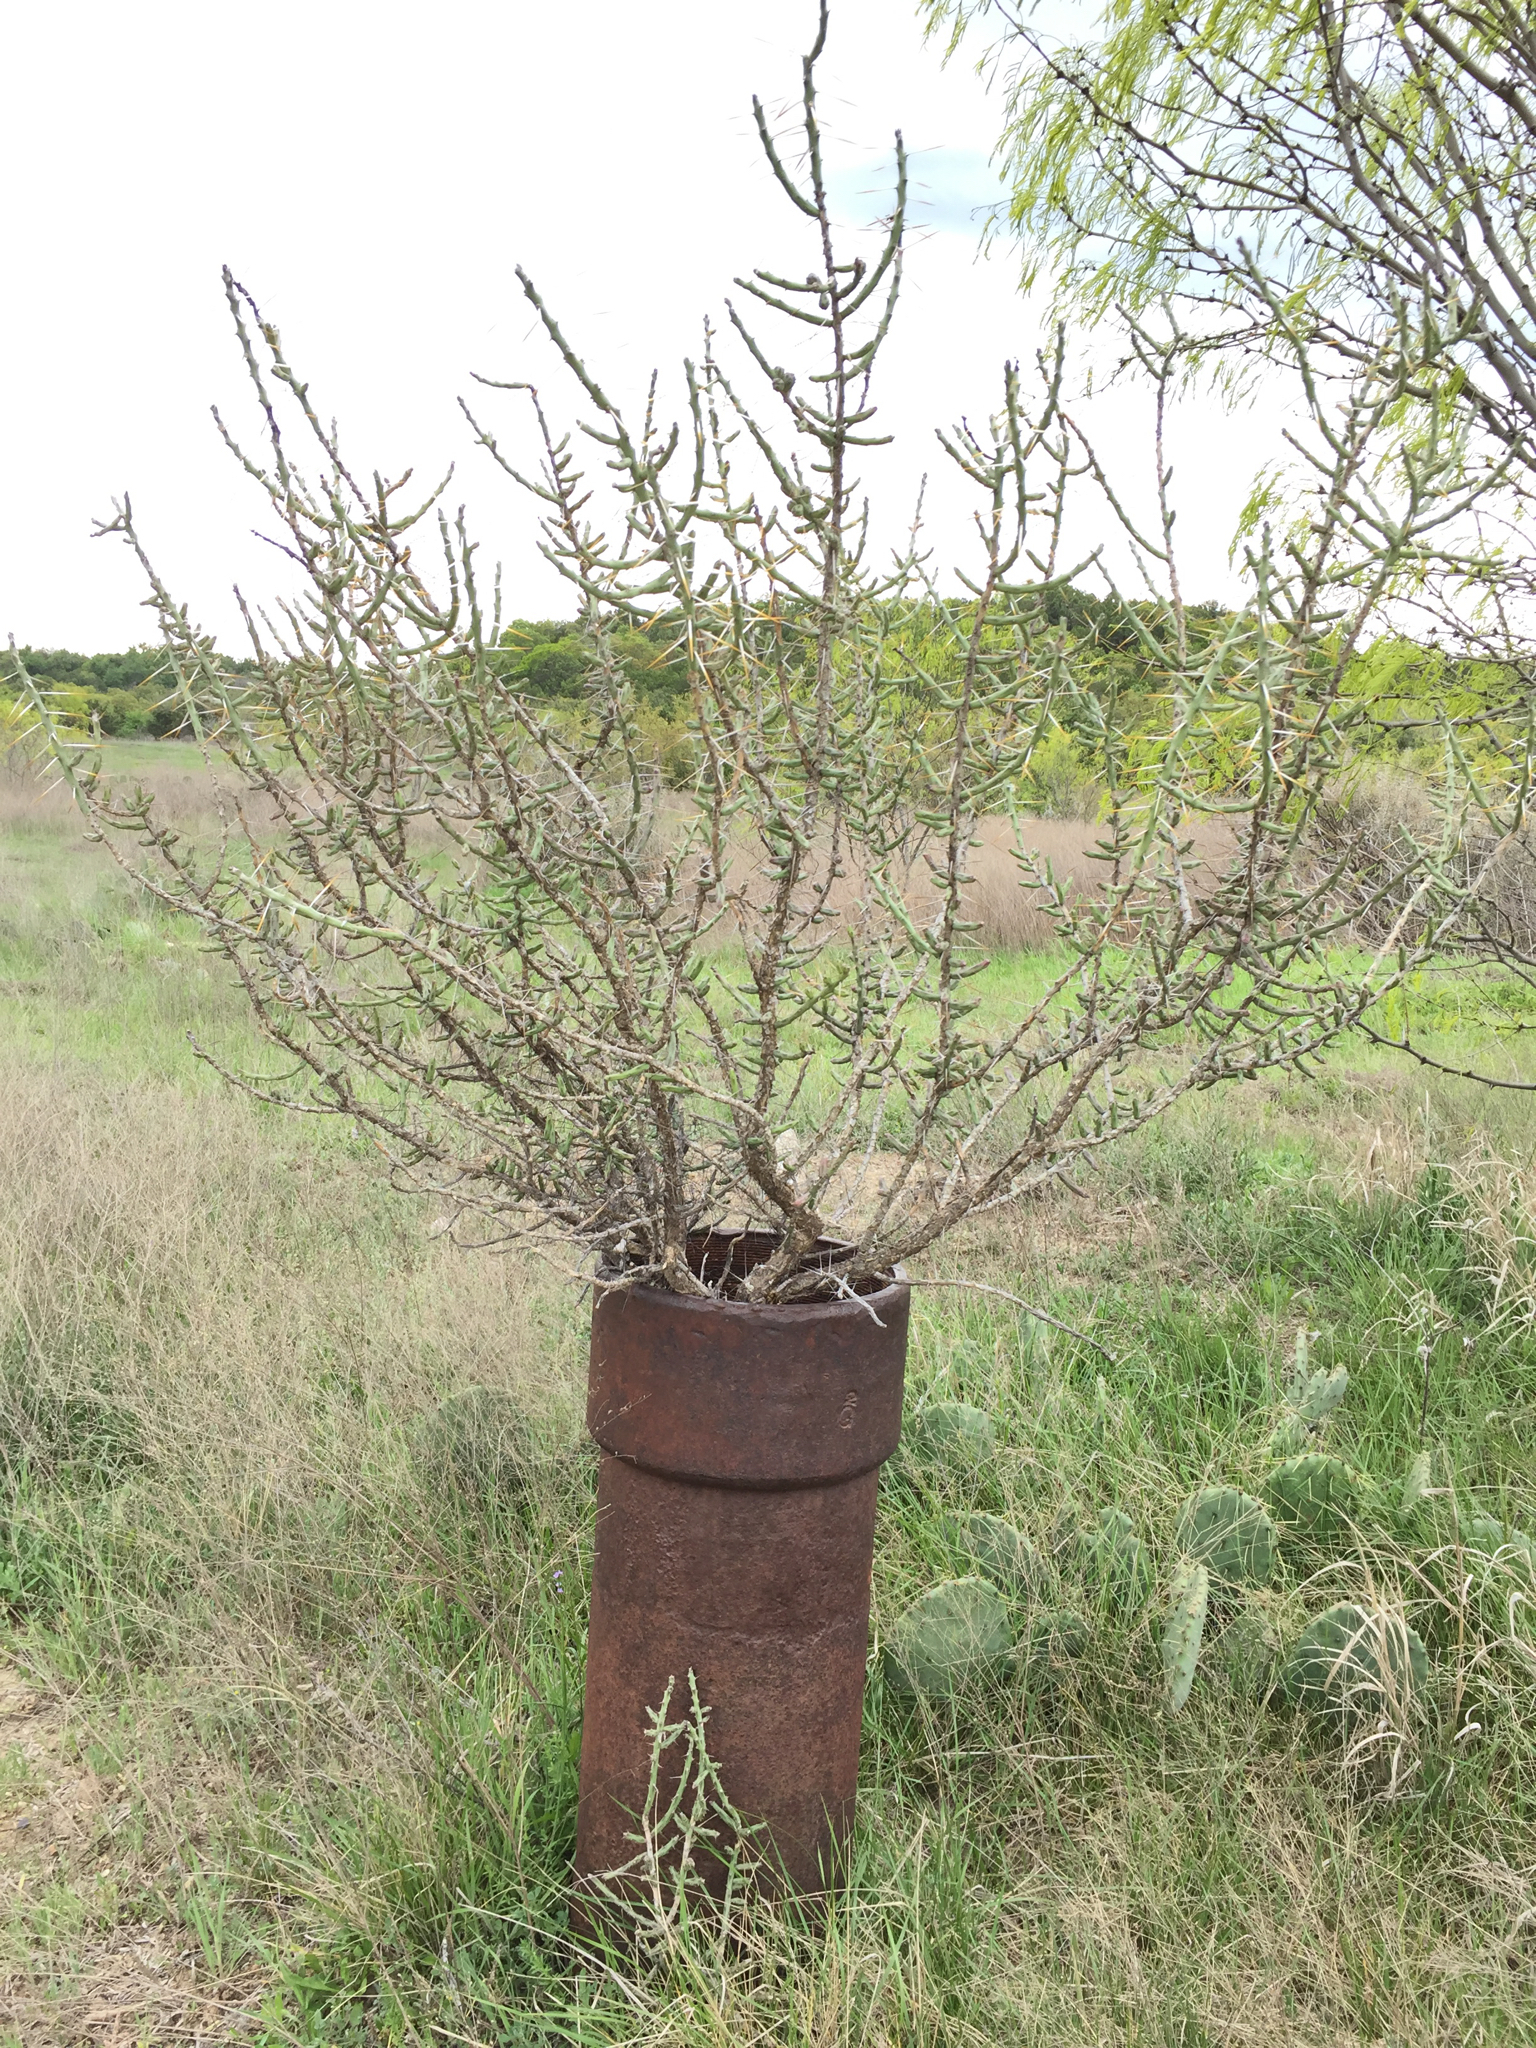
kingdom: Plantae
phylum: Tracheophyta
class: Magnoliopsida
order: Caryophyllales
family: Cactaceae
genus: Cylindropuntia
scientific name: Cylindropuntia leptocaulis
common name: Christmas cactus
